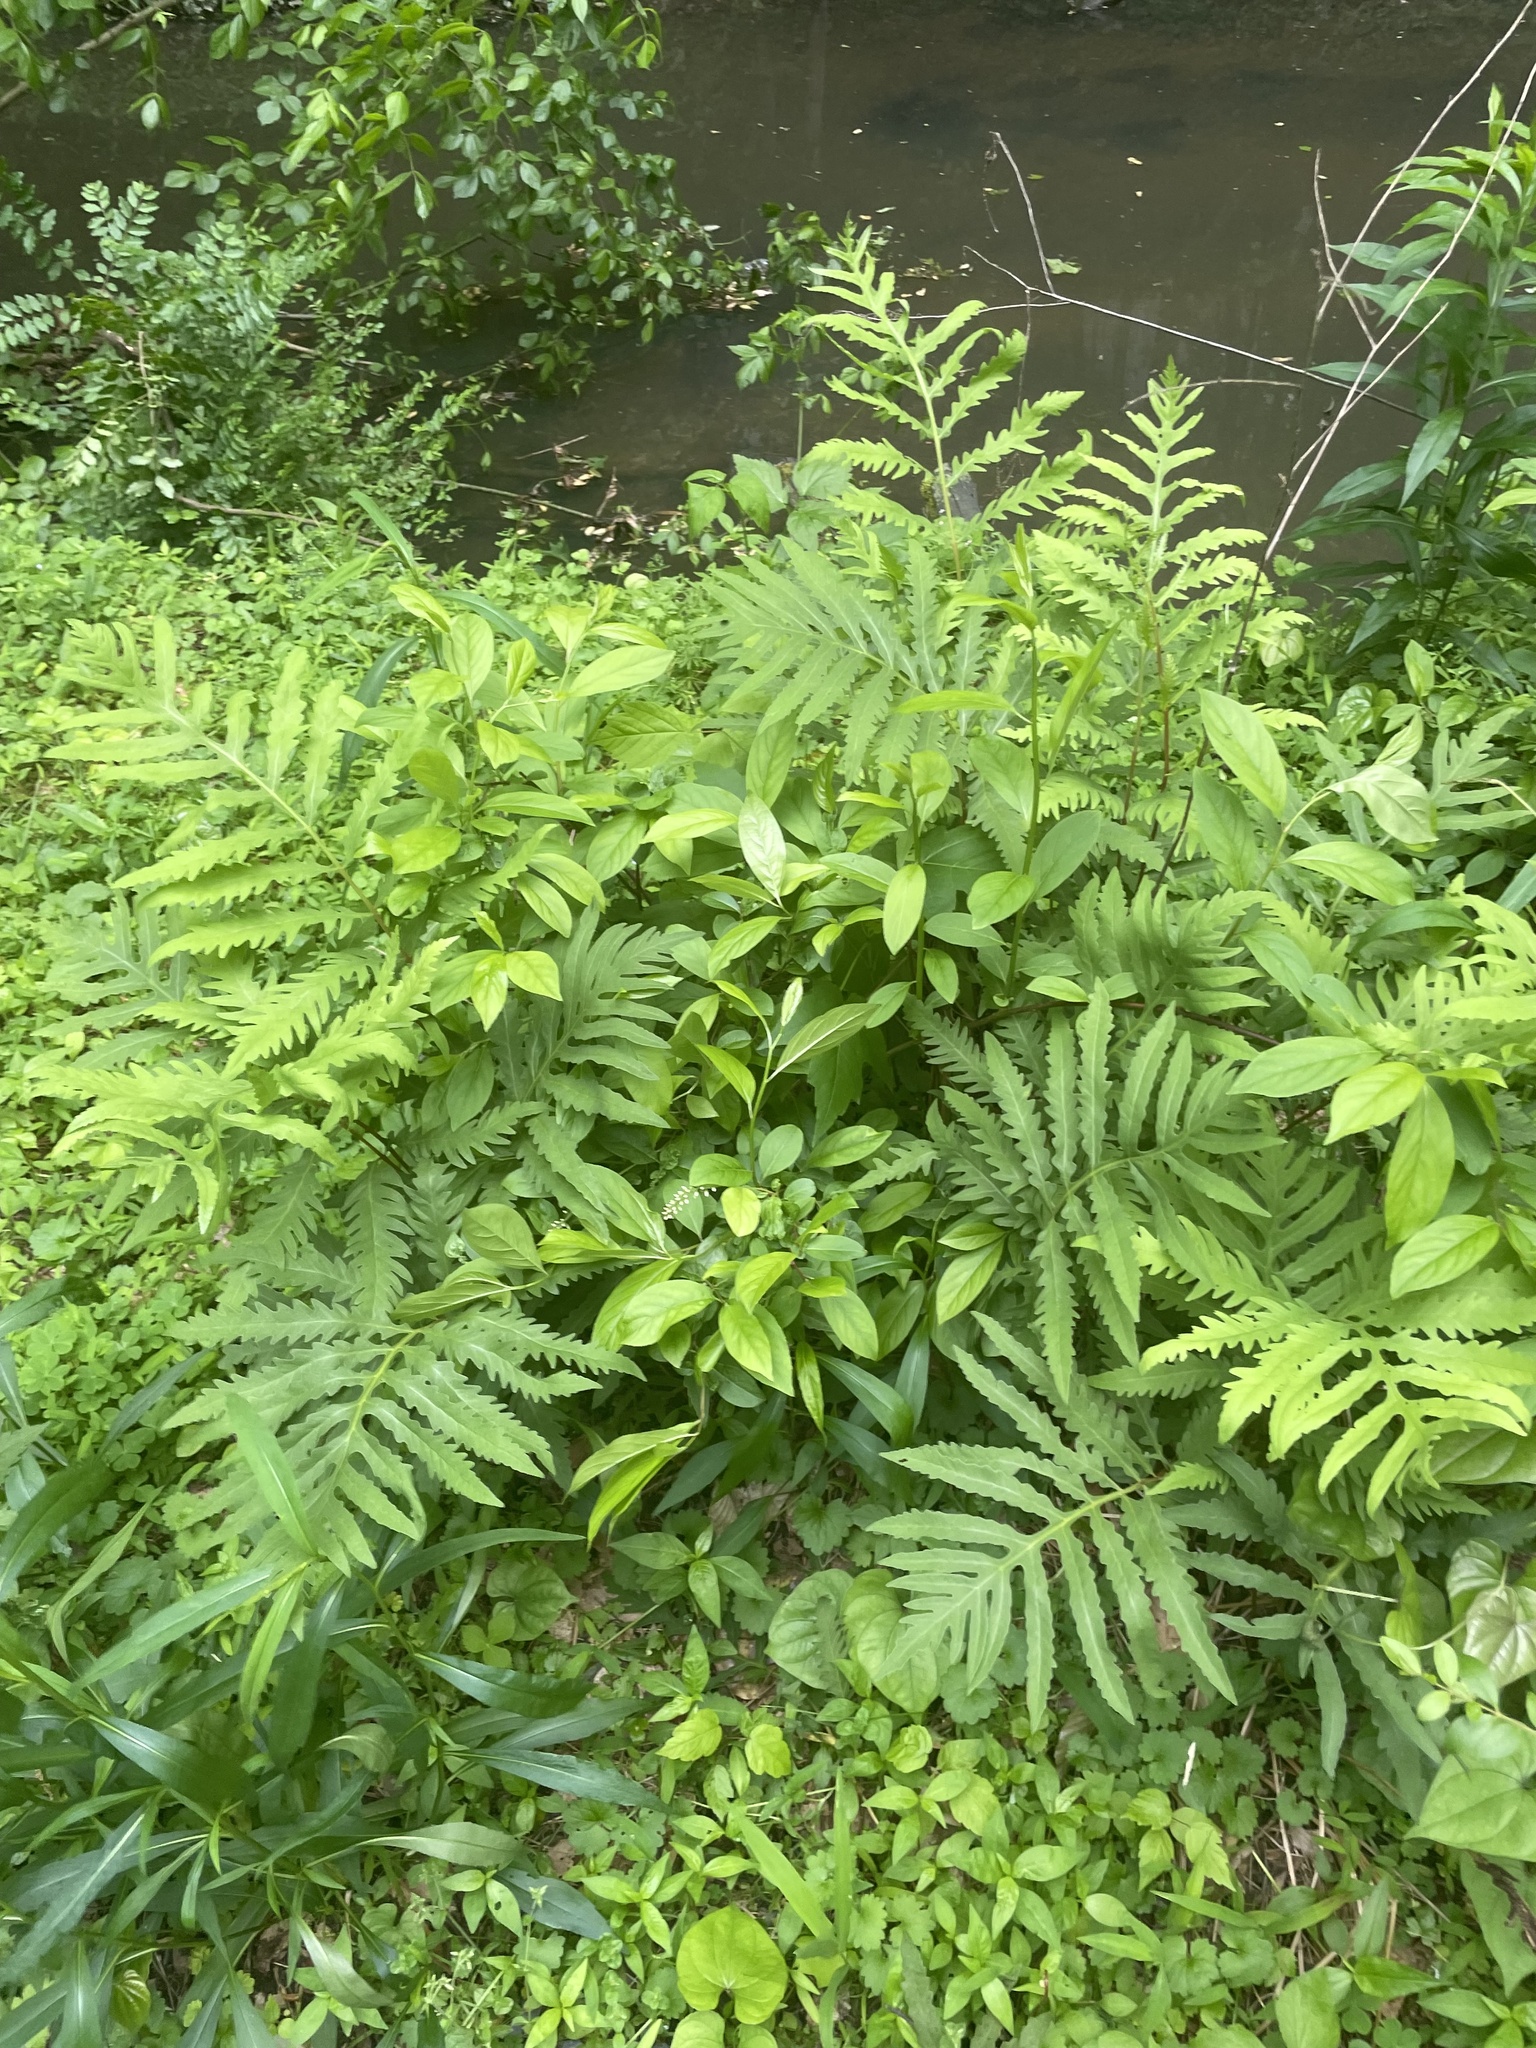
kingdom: Plantae
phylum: Tracheophyta
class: Polypodiopsida
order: Polypodiales
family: Onocleaceae
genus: Onoclea
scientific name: Onoclea sensibilis
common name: Sensitive fern
